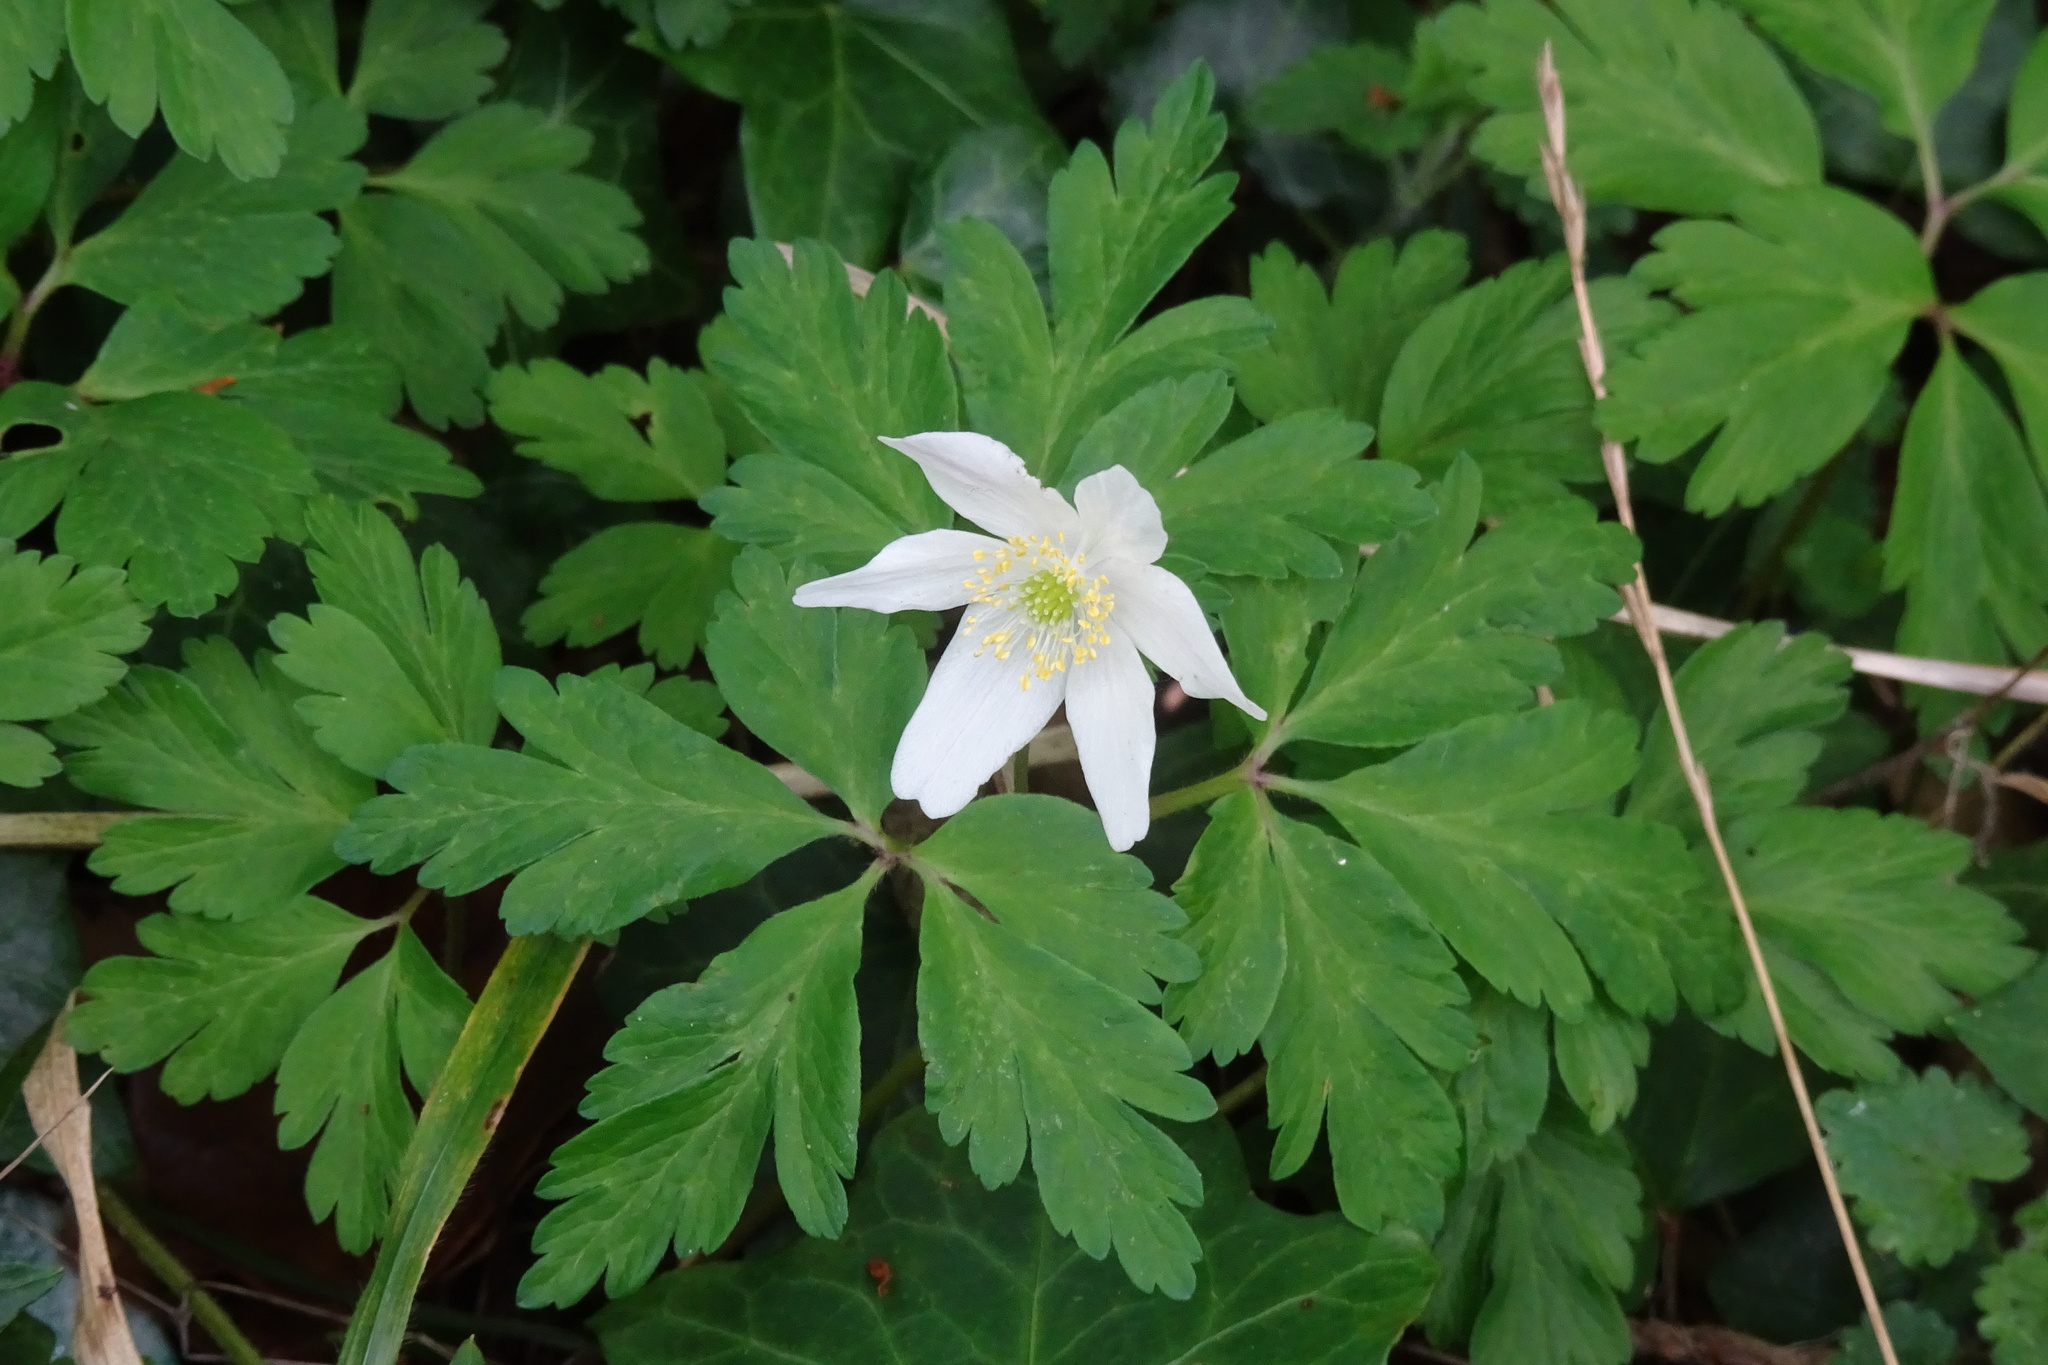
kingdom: Plantae
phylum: Tracheophyta
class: Magnoliopsida
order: Ranunculales
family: Ranunculaceae
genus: Anemone
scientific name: Anemone nemorosa
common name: Wood anemone
